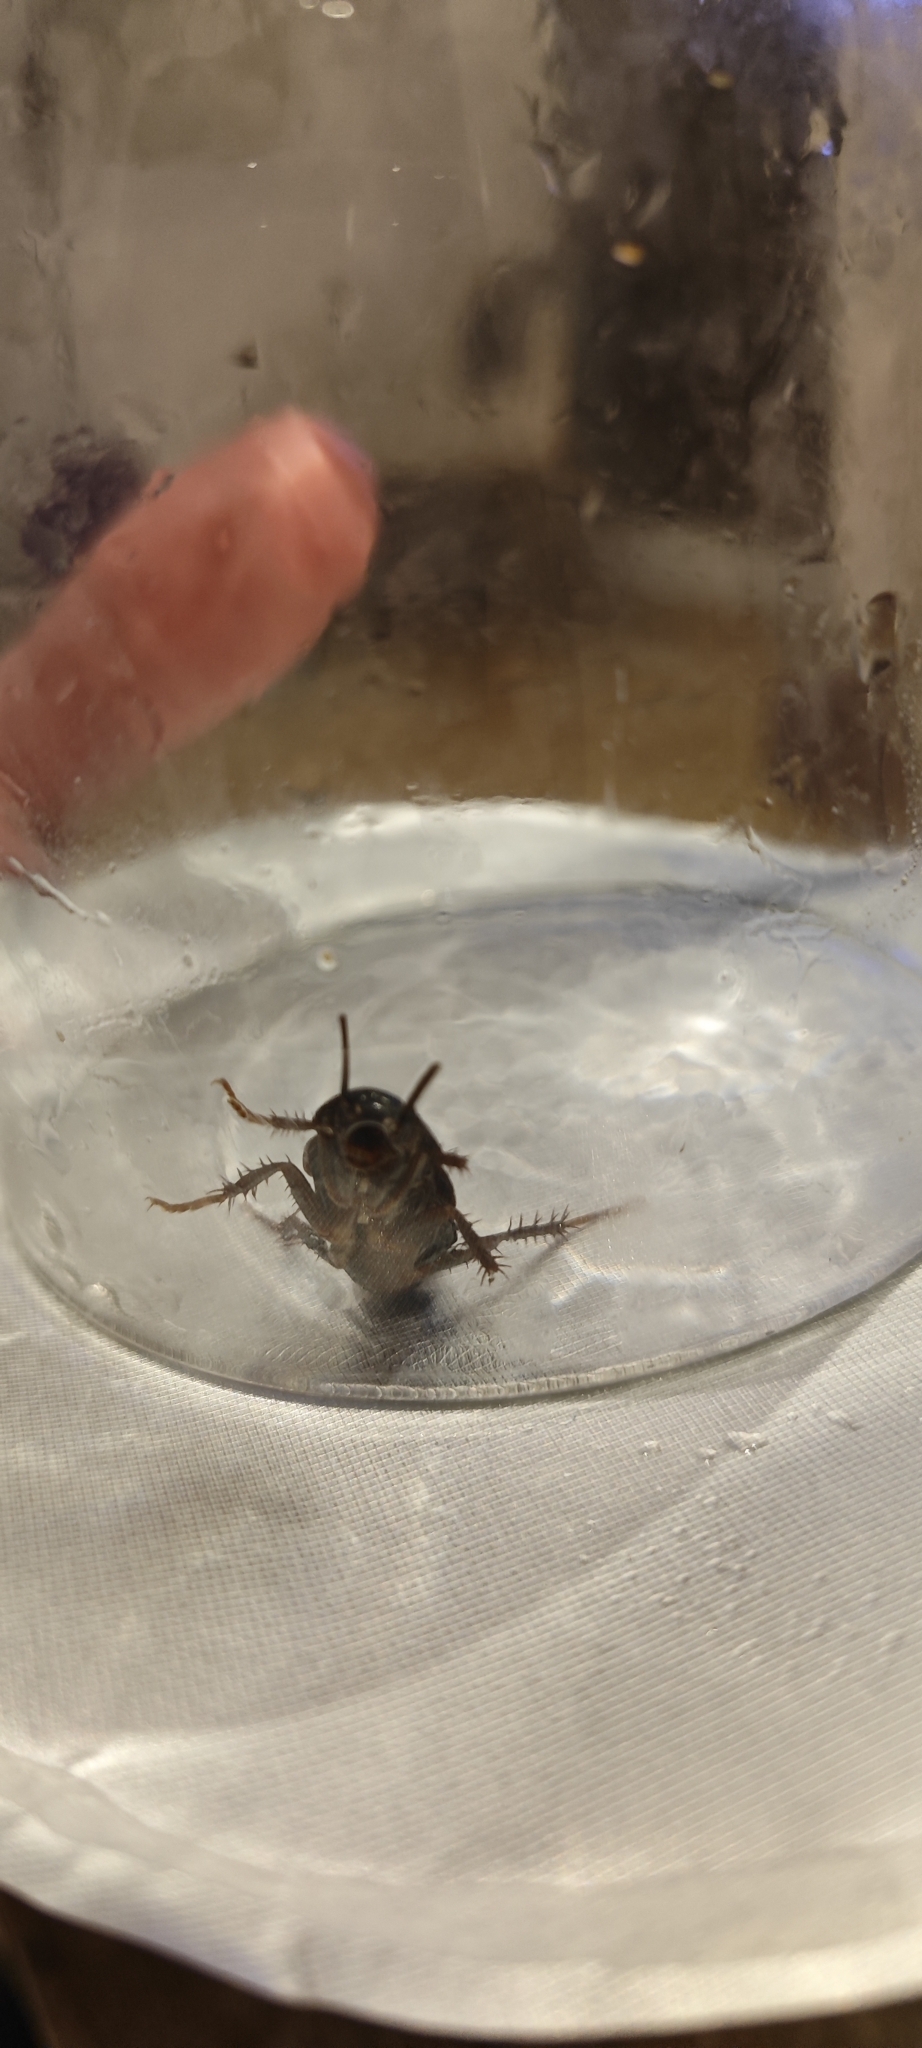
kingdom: Animalia
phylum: Arthropoda
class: Insecta
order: Blattodea
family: Blattidae
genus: Blatta
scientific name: Blatta orientalis
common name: Oriental cockroach
